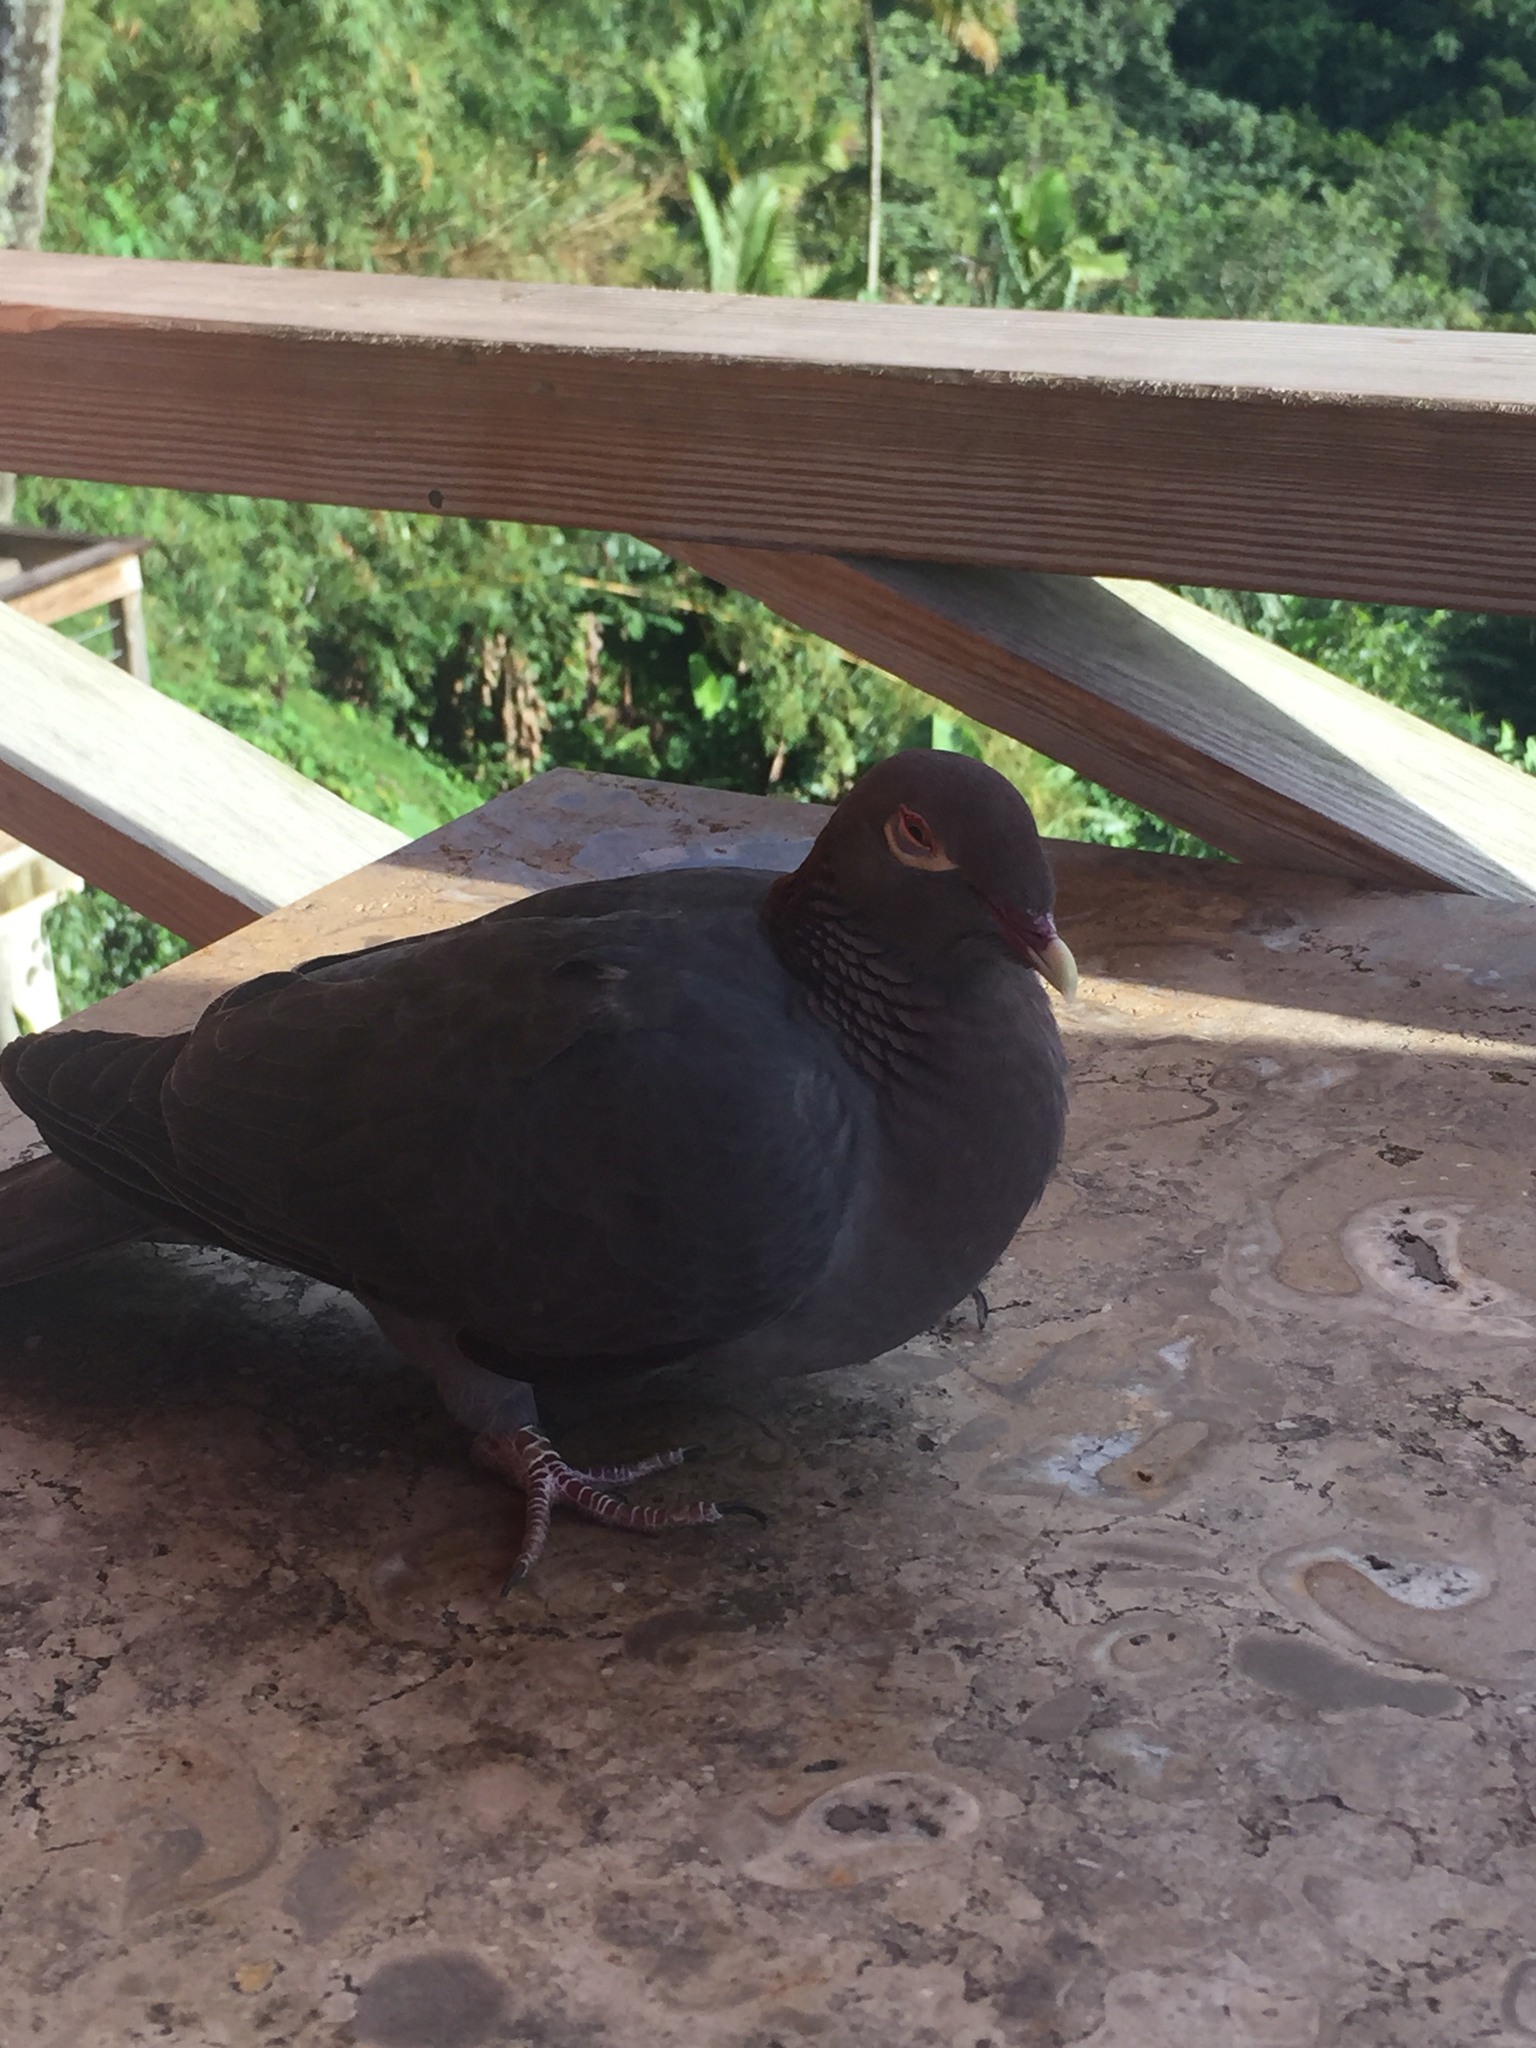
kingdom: Animalia
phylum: Chordata
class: Aves
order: Columbiformes
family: Columbidae
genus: Patagioenas
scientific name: Patagioenas squamosa
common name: Scaly-naped pigeon
